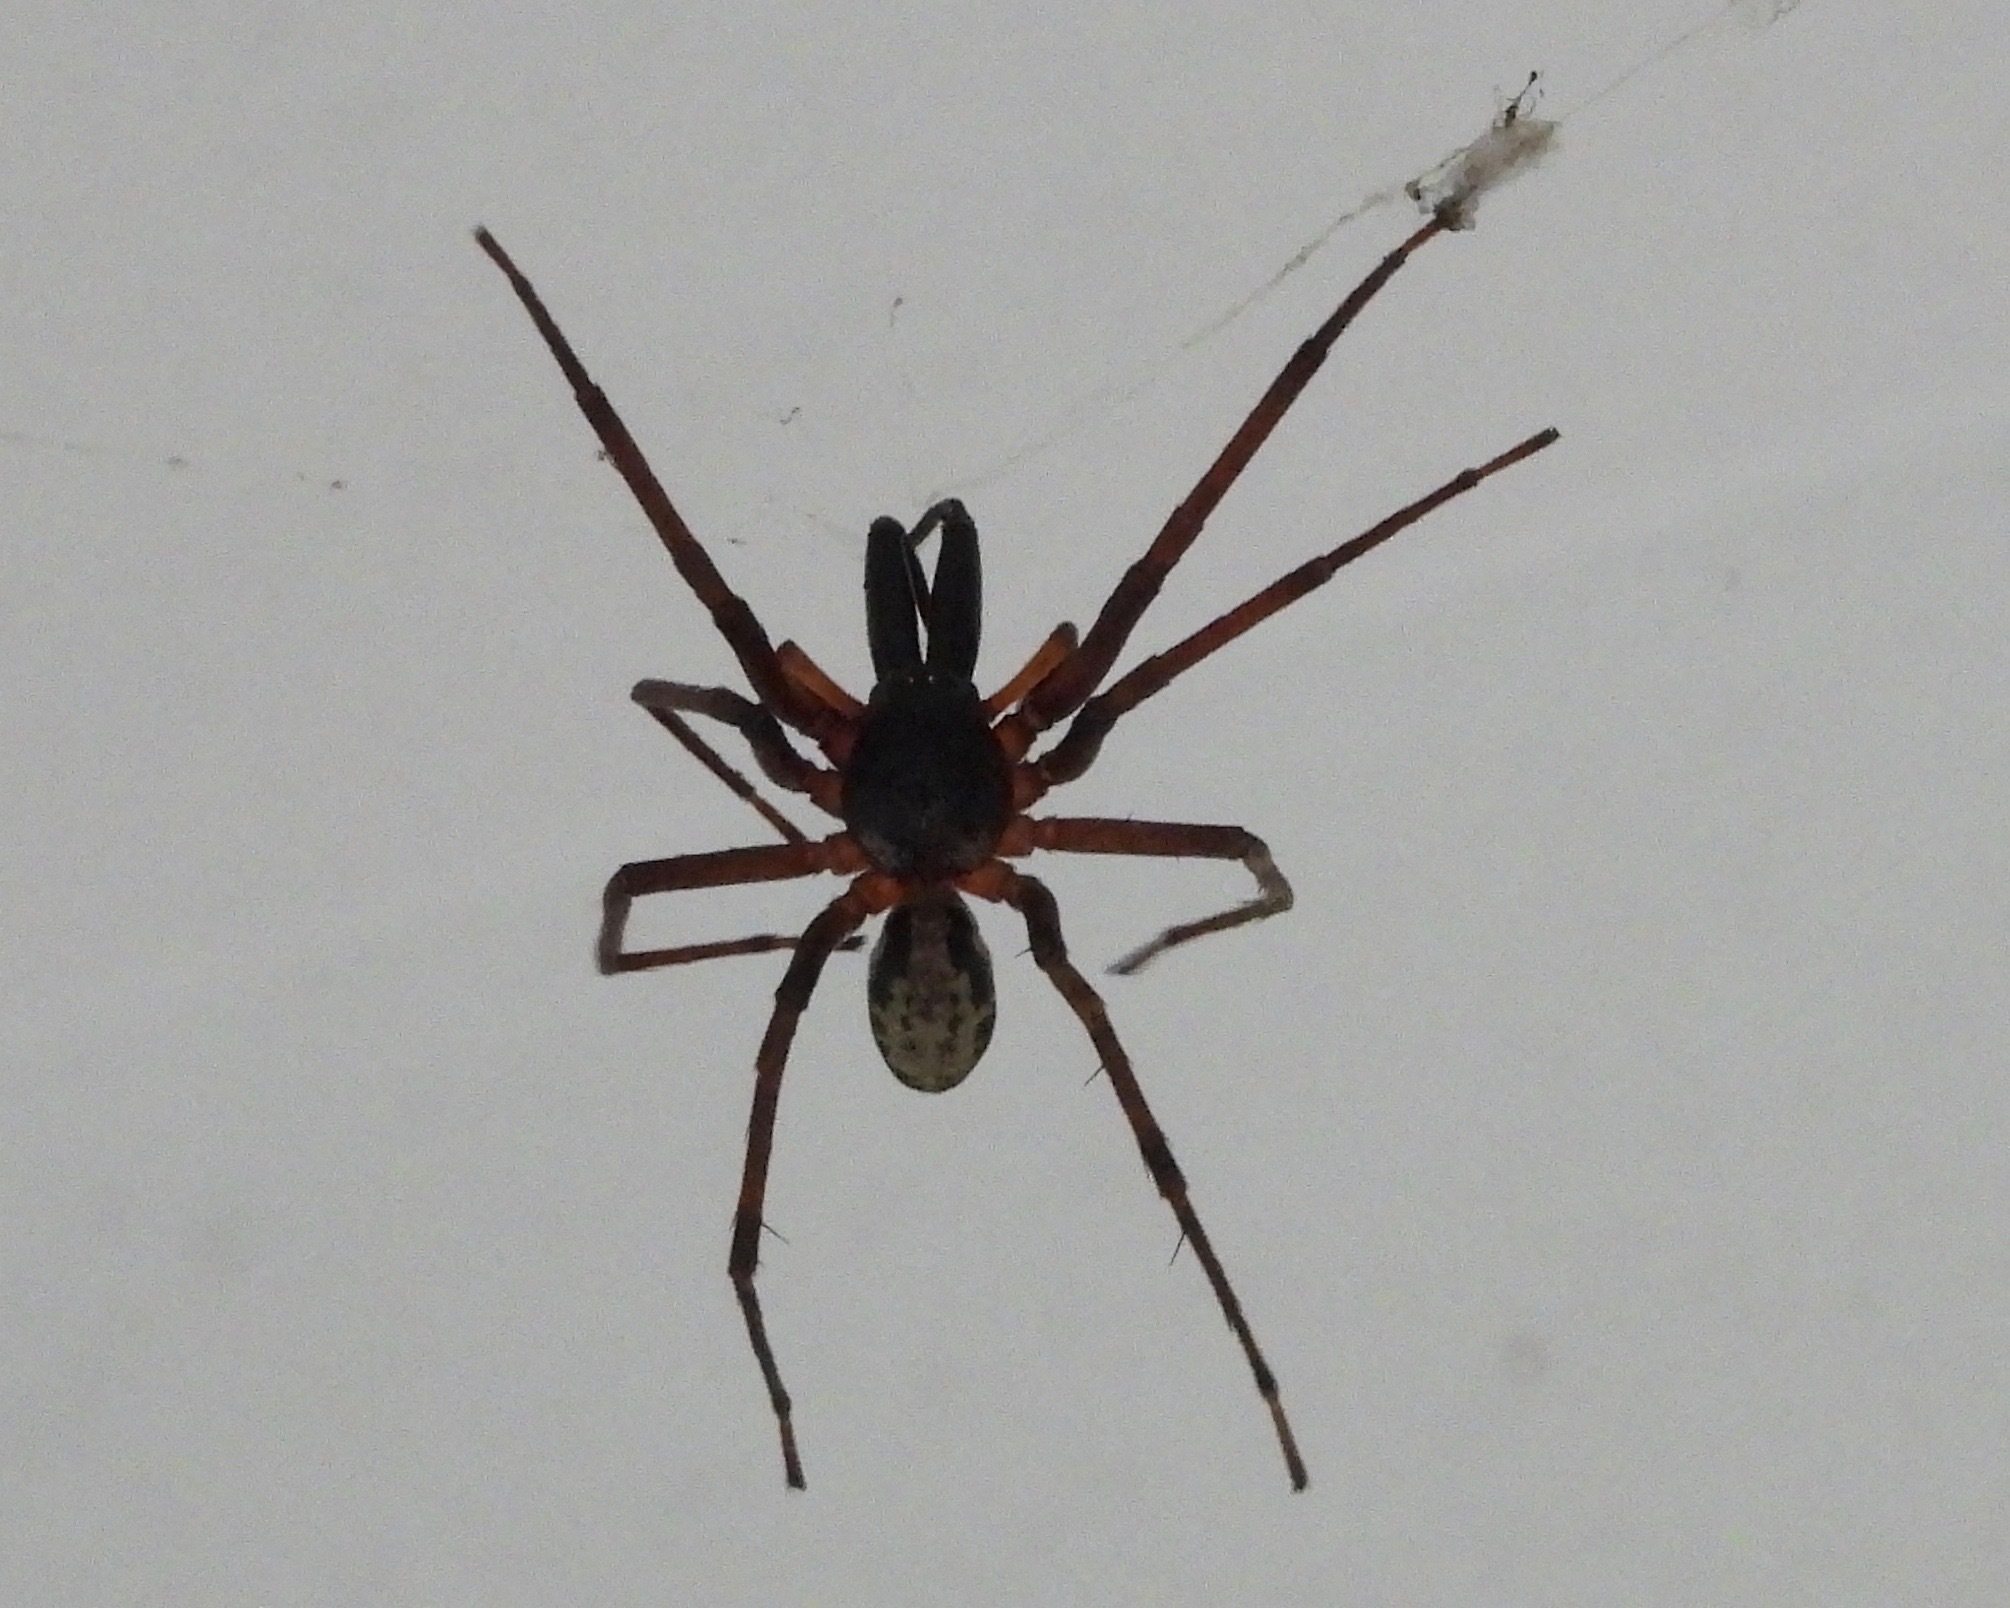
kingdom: Animalia
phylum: Arthropoda
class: Arachnida
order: Araneae
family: Corinnidae
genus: Megalostrata
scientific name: Megalostrata raptor
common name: Corinnid sac spiders
